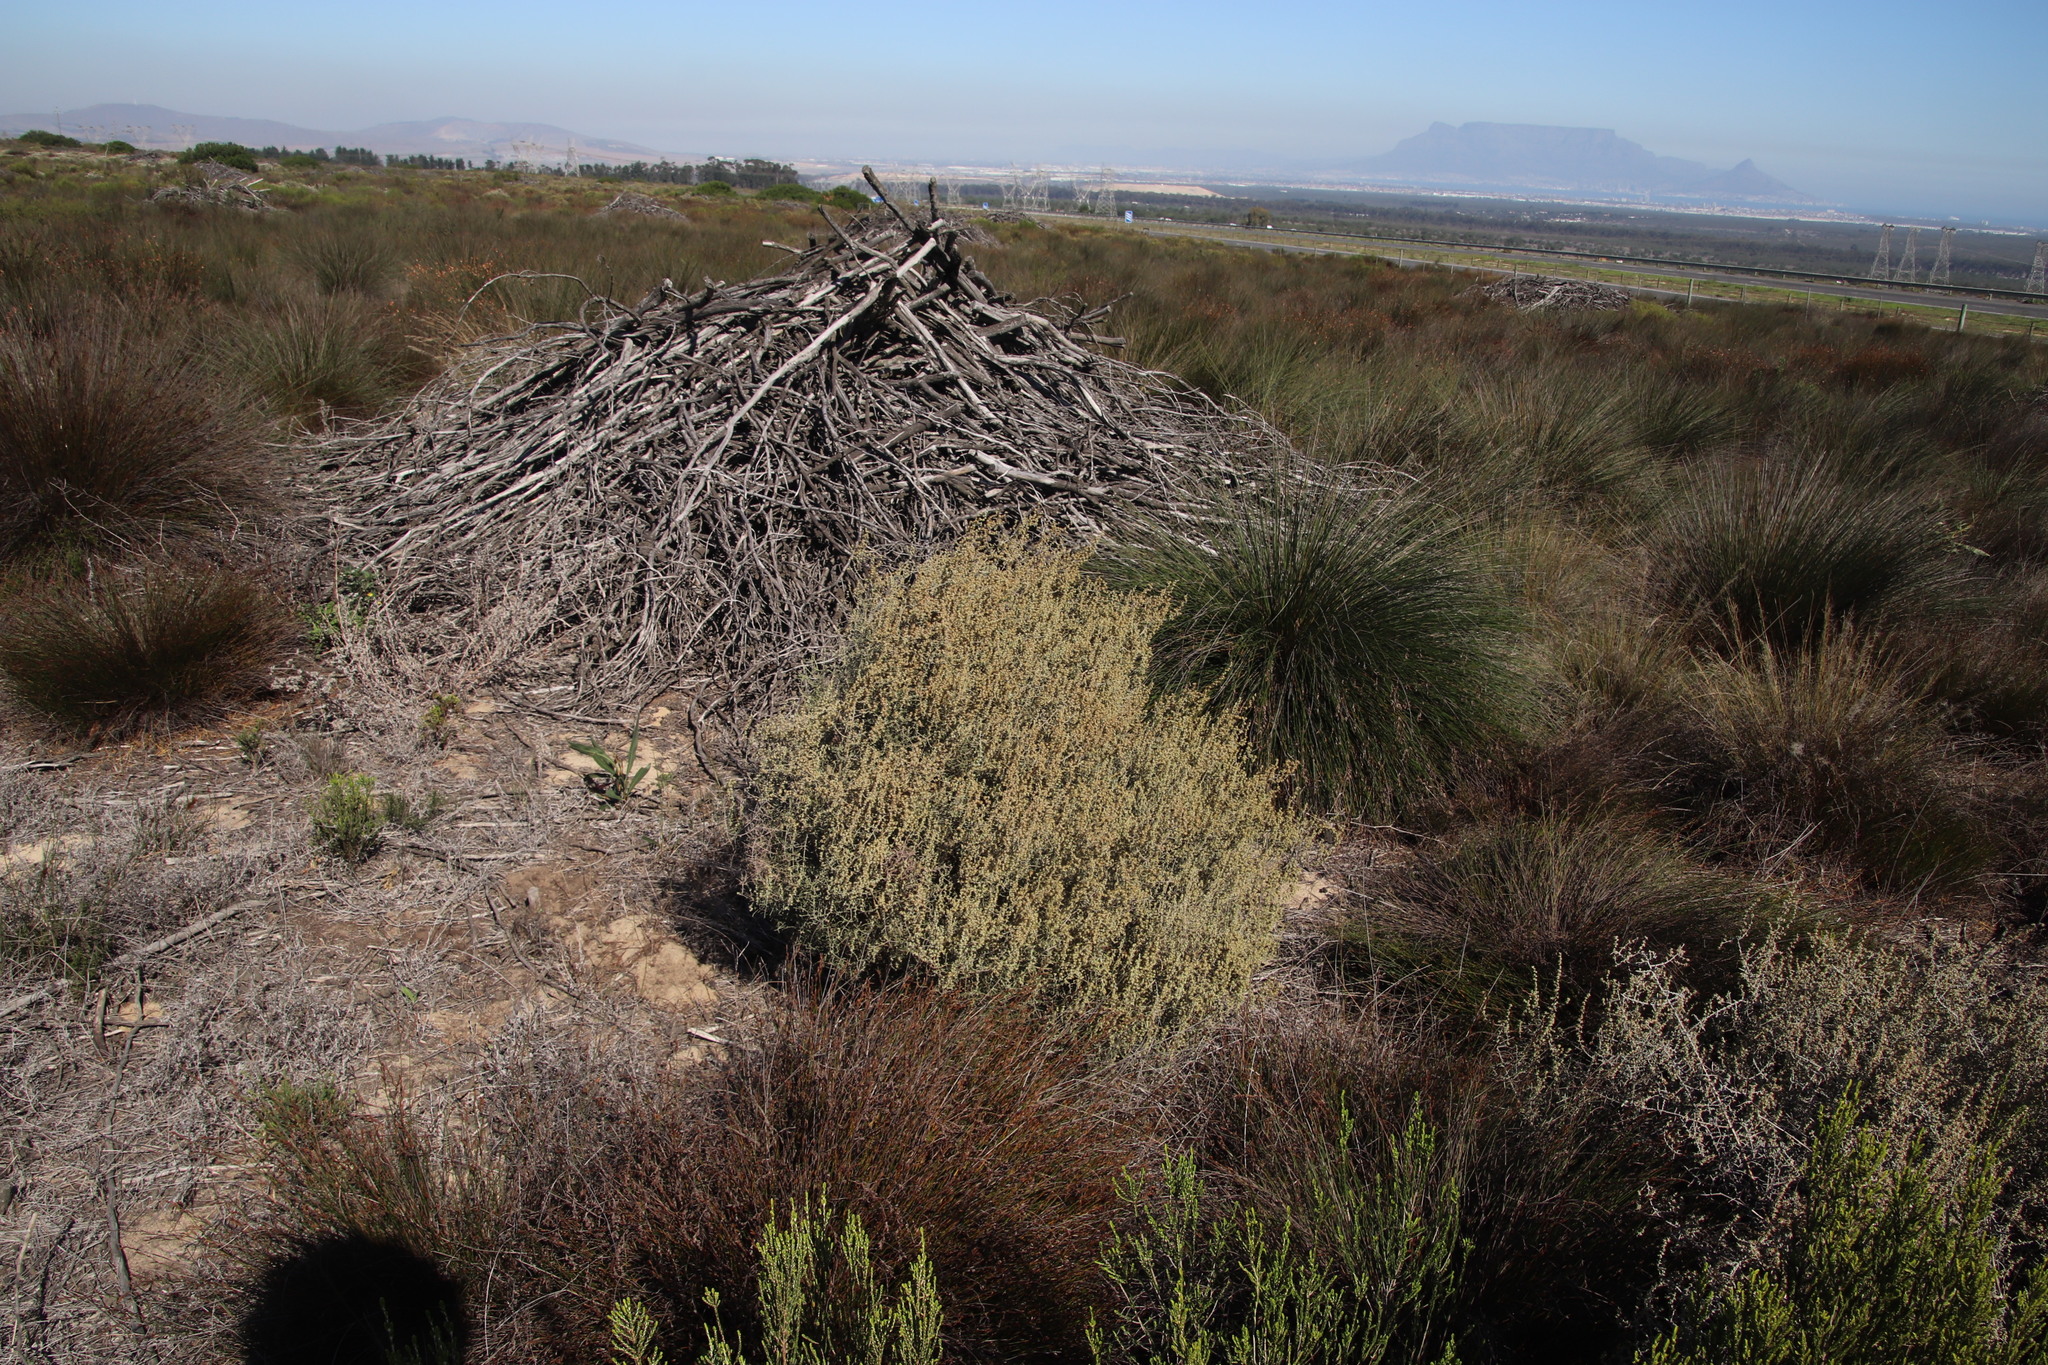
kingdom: Plantae
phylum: Tracheophyta
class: Magnoliopsida
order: Asterales
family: Asteraceae
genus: Seriphium
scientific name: Seriphium plumosum
